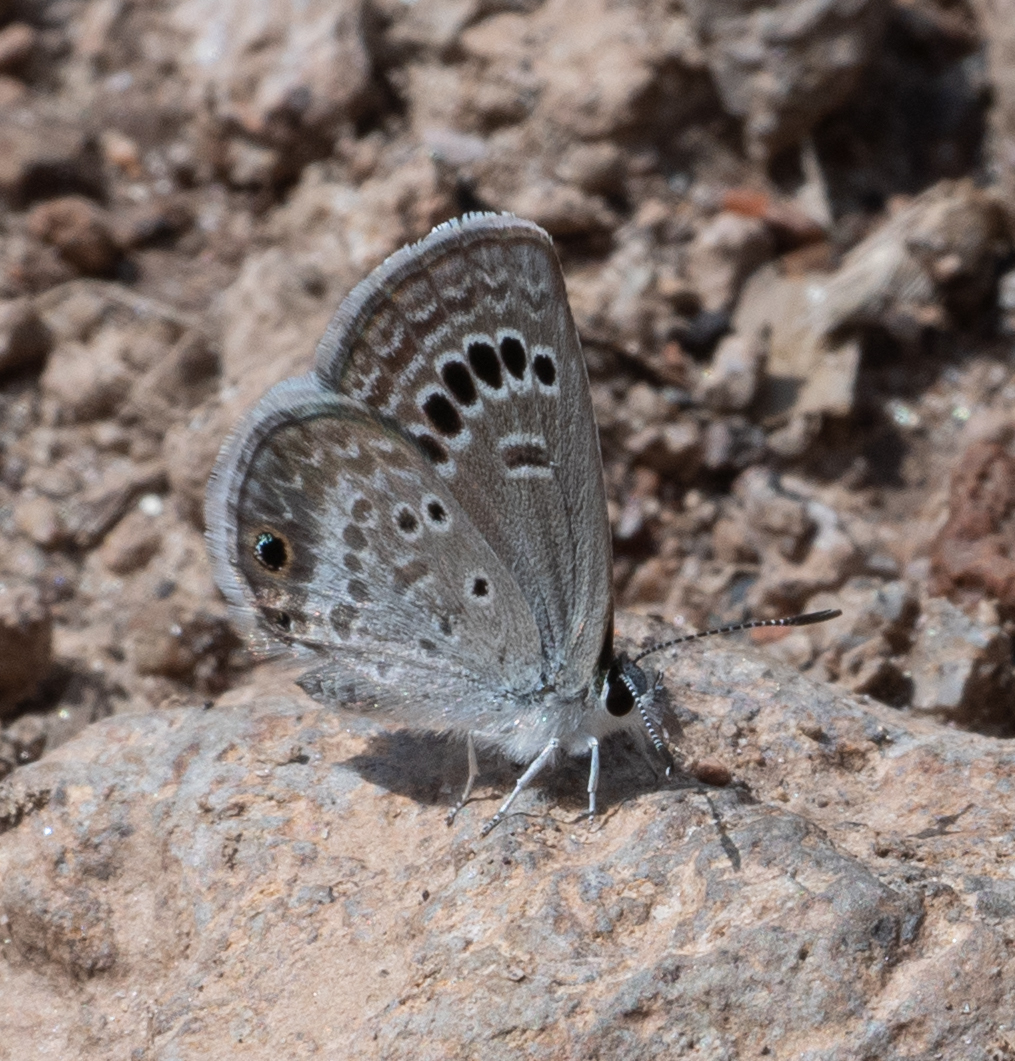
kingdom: Animalia
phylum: Arthropoda
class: Insecta
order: Lepidoptera
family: Lycaenidae
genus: Echinargus
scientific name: Echinargus isola
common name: Reakirt's blue
